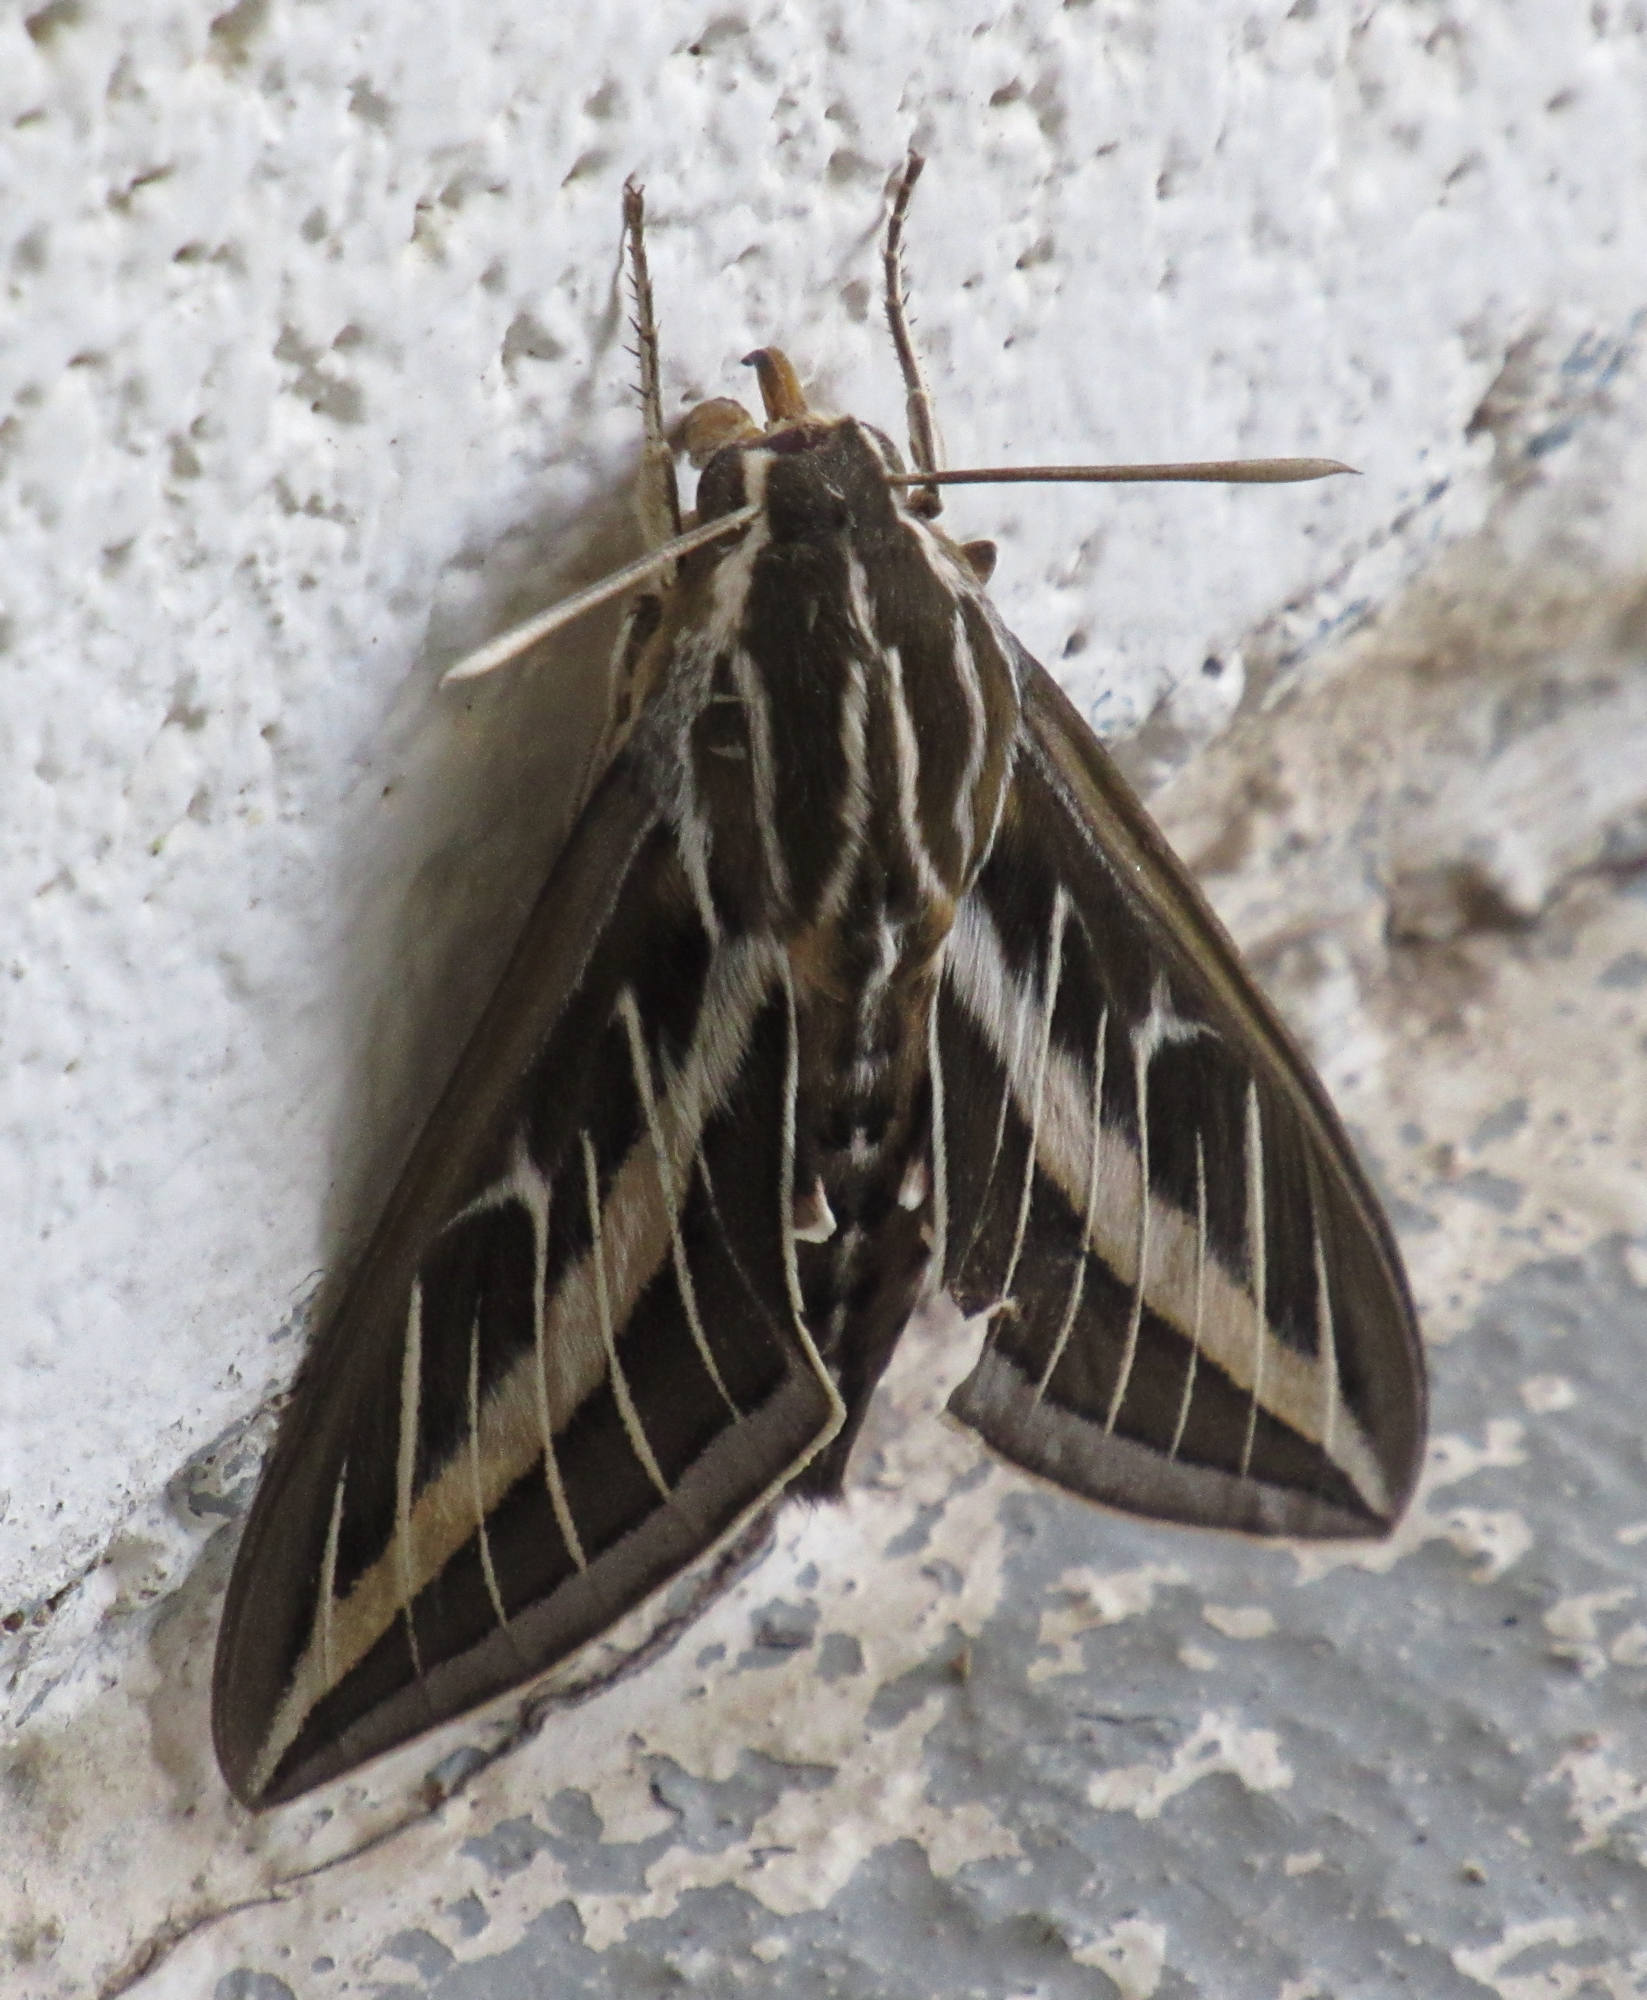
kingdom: Animalia
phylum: Arthropoda
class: Insecta
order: Lepidoptera
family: Sphingidae
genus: Hyles
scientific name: Hyles lineata
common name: White-lined sphinx
